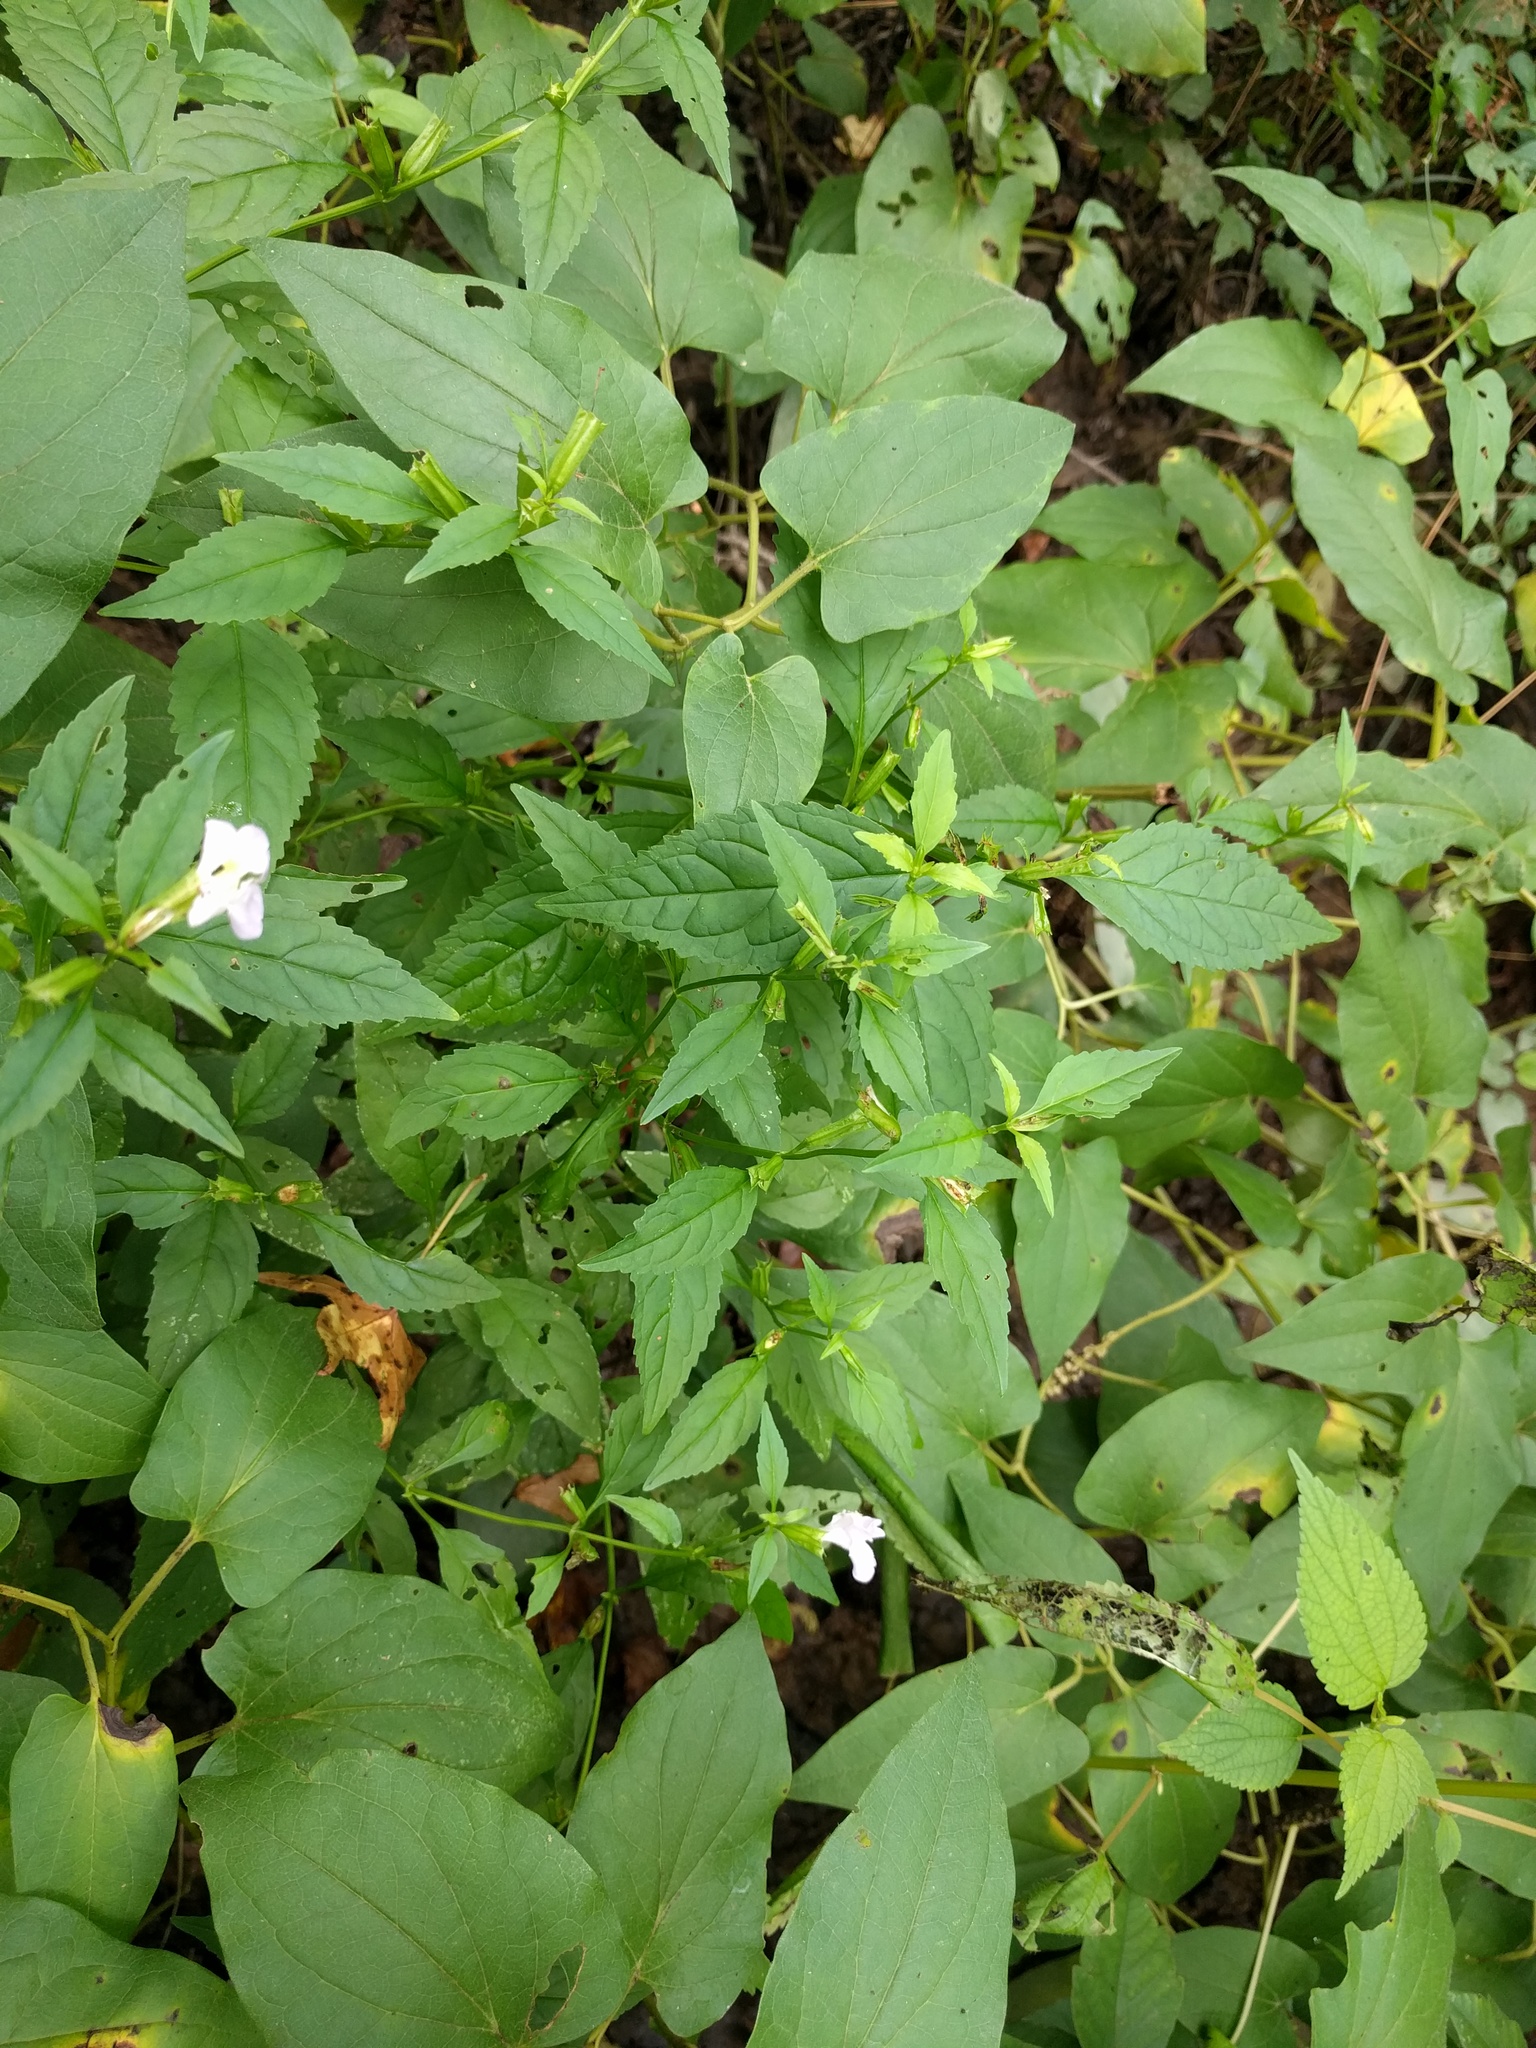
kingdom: Plantae
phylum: Tracheophyta
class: Magnoliopsida
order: Lamiales
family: Phrymaceae
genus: Mimulus
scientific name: Mimulus alatus
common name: Sharp-wing monkey-flower
